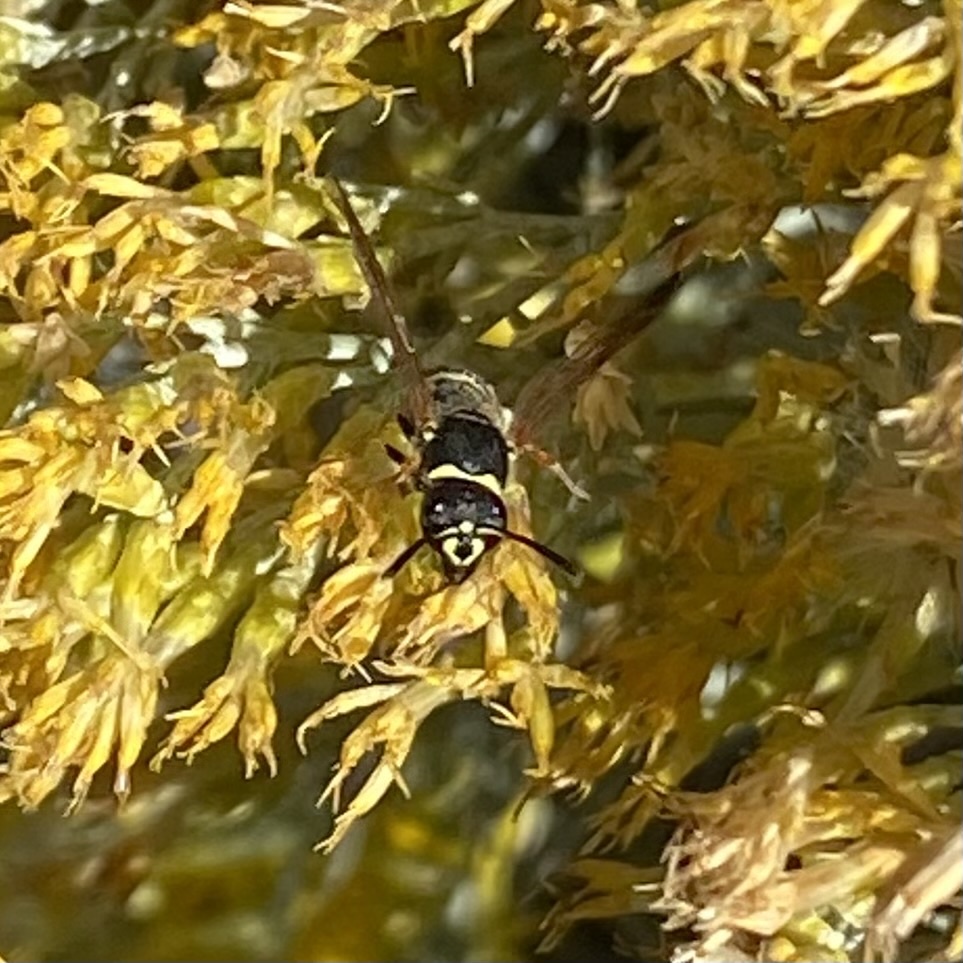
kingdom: Animalia
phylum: Arthropoda
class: Insecta
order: Hymenoptera
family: Vespidae
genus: Ancistrocerus
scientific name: Ancistrocerus
